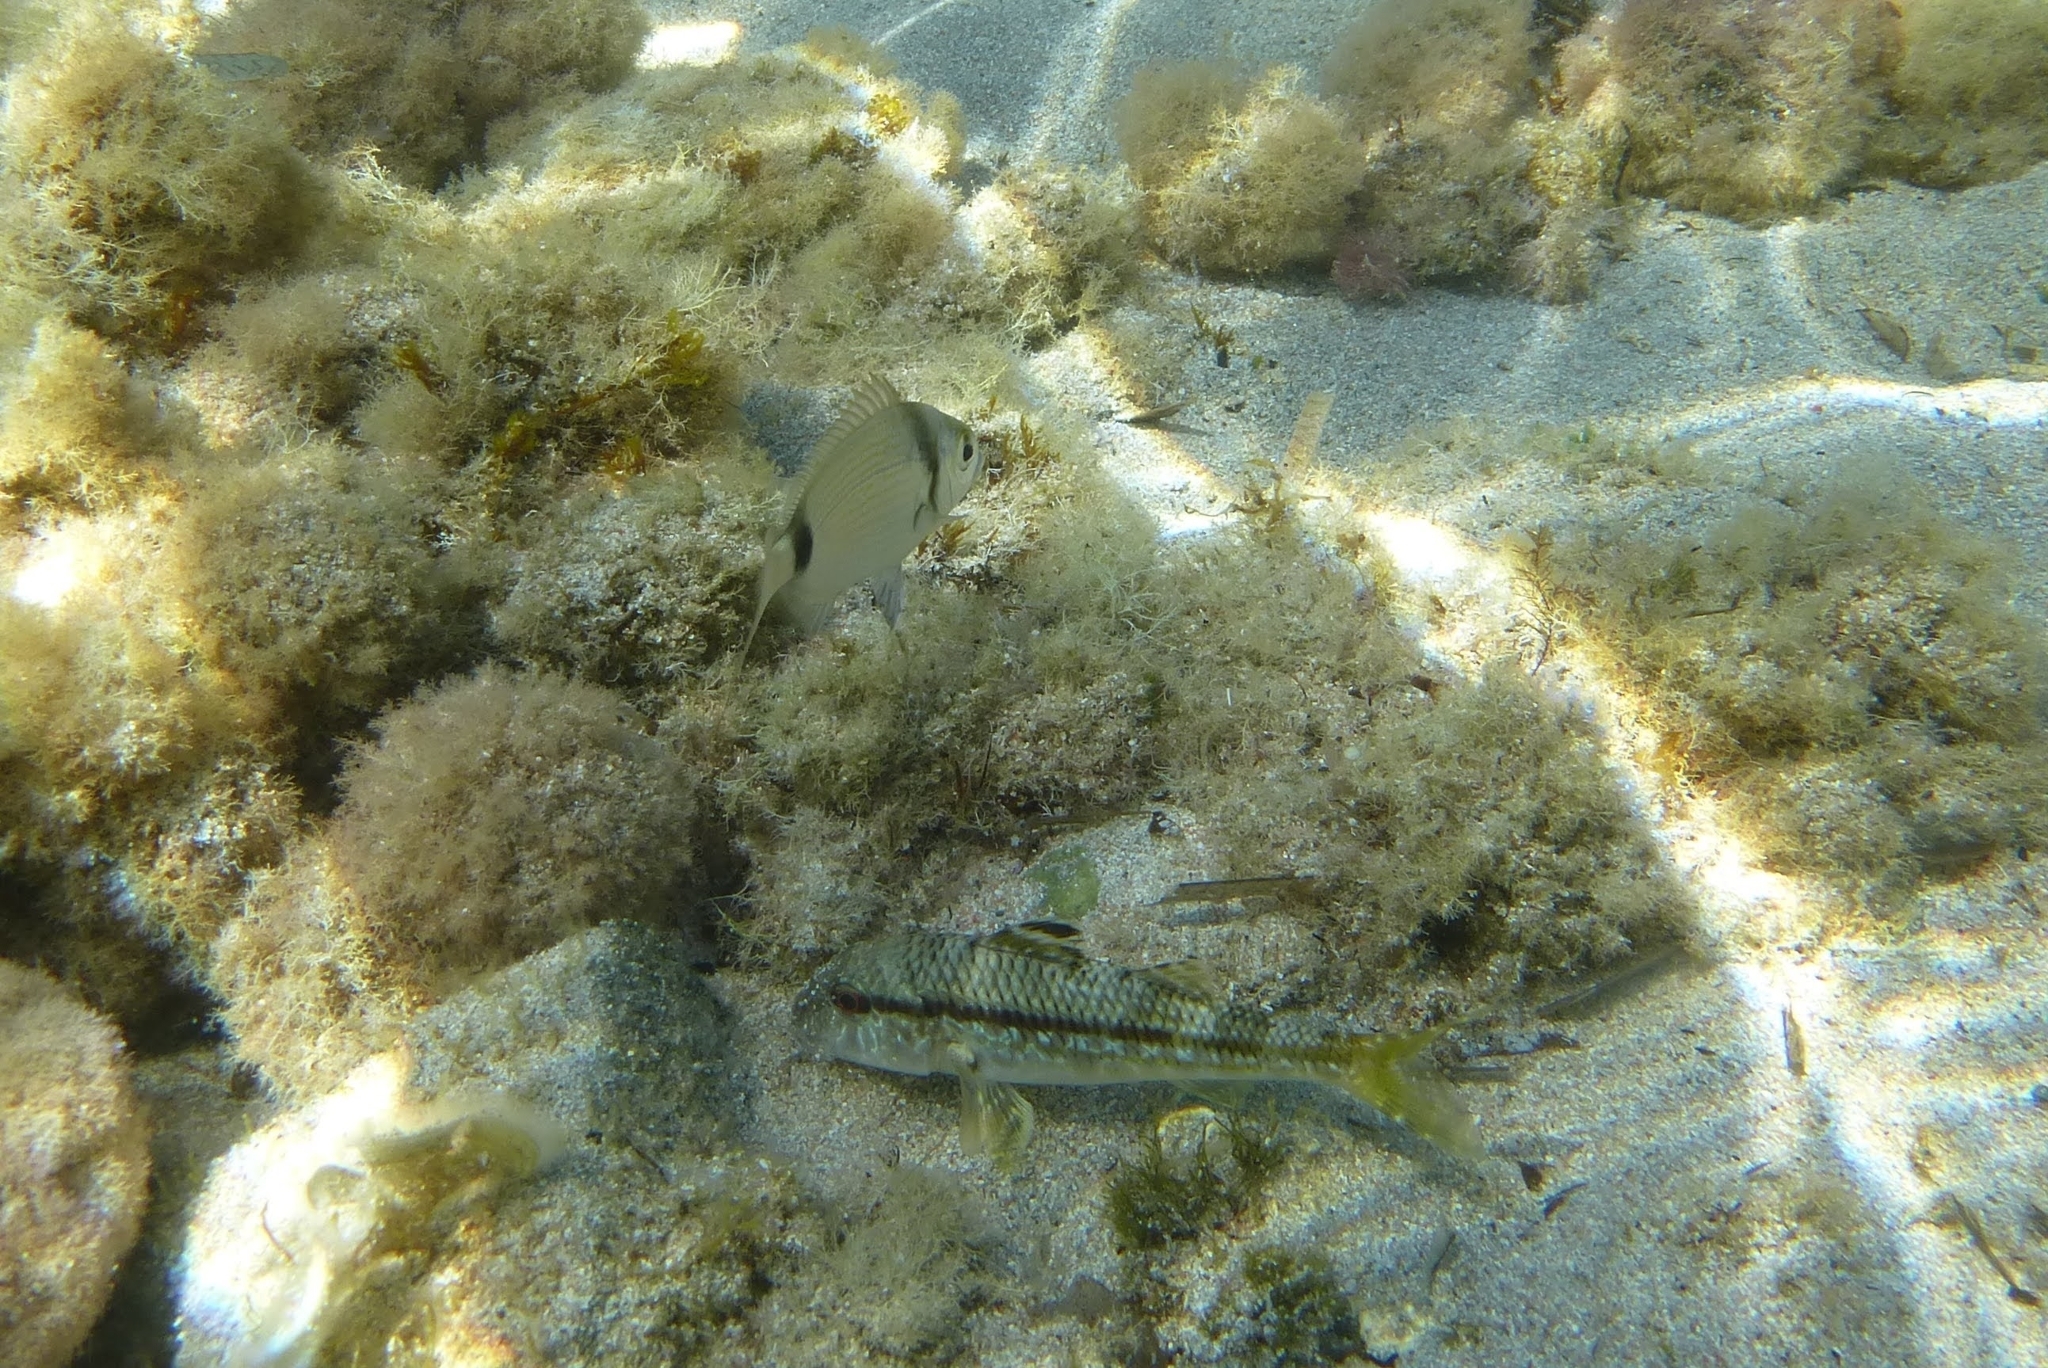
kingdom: Animalia
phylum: Chordata
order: Perciformes
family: Mullidae
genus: Mullus
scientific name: Mullus surmuletus
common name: Red mullet
